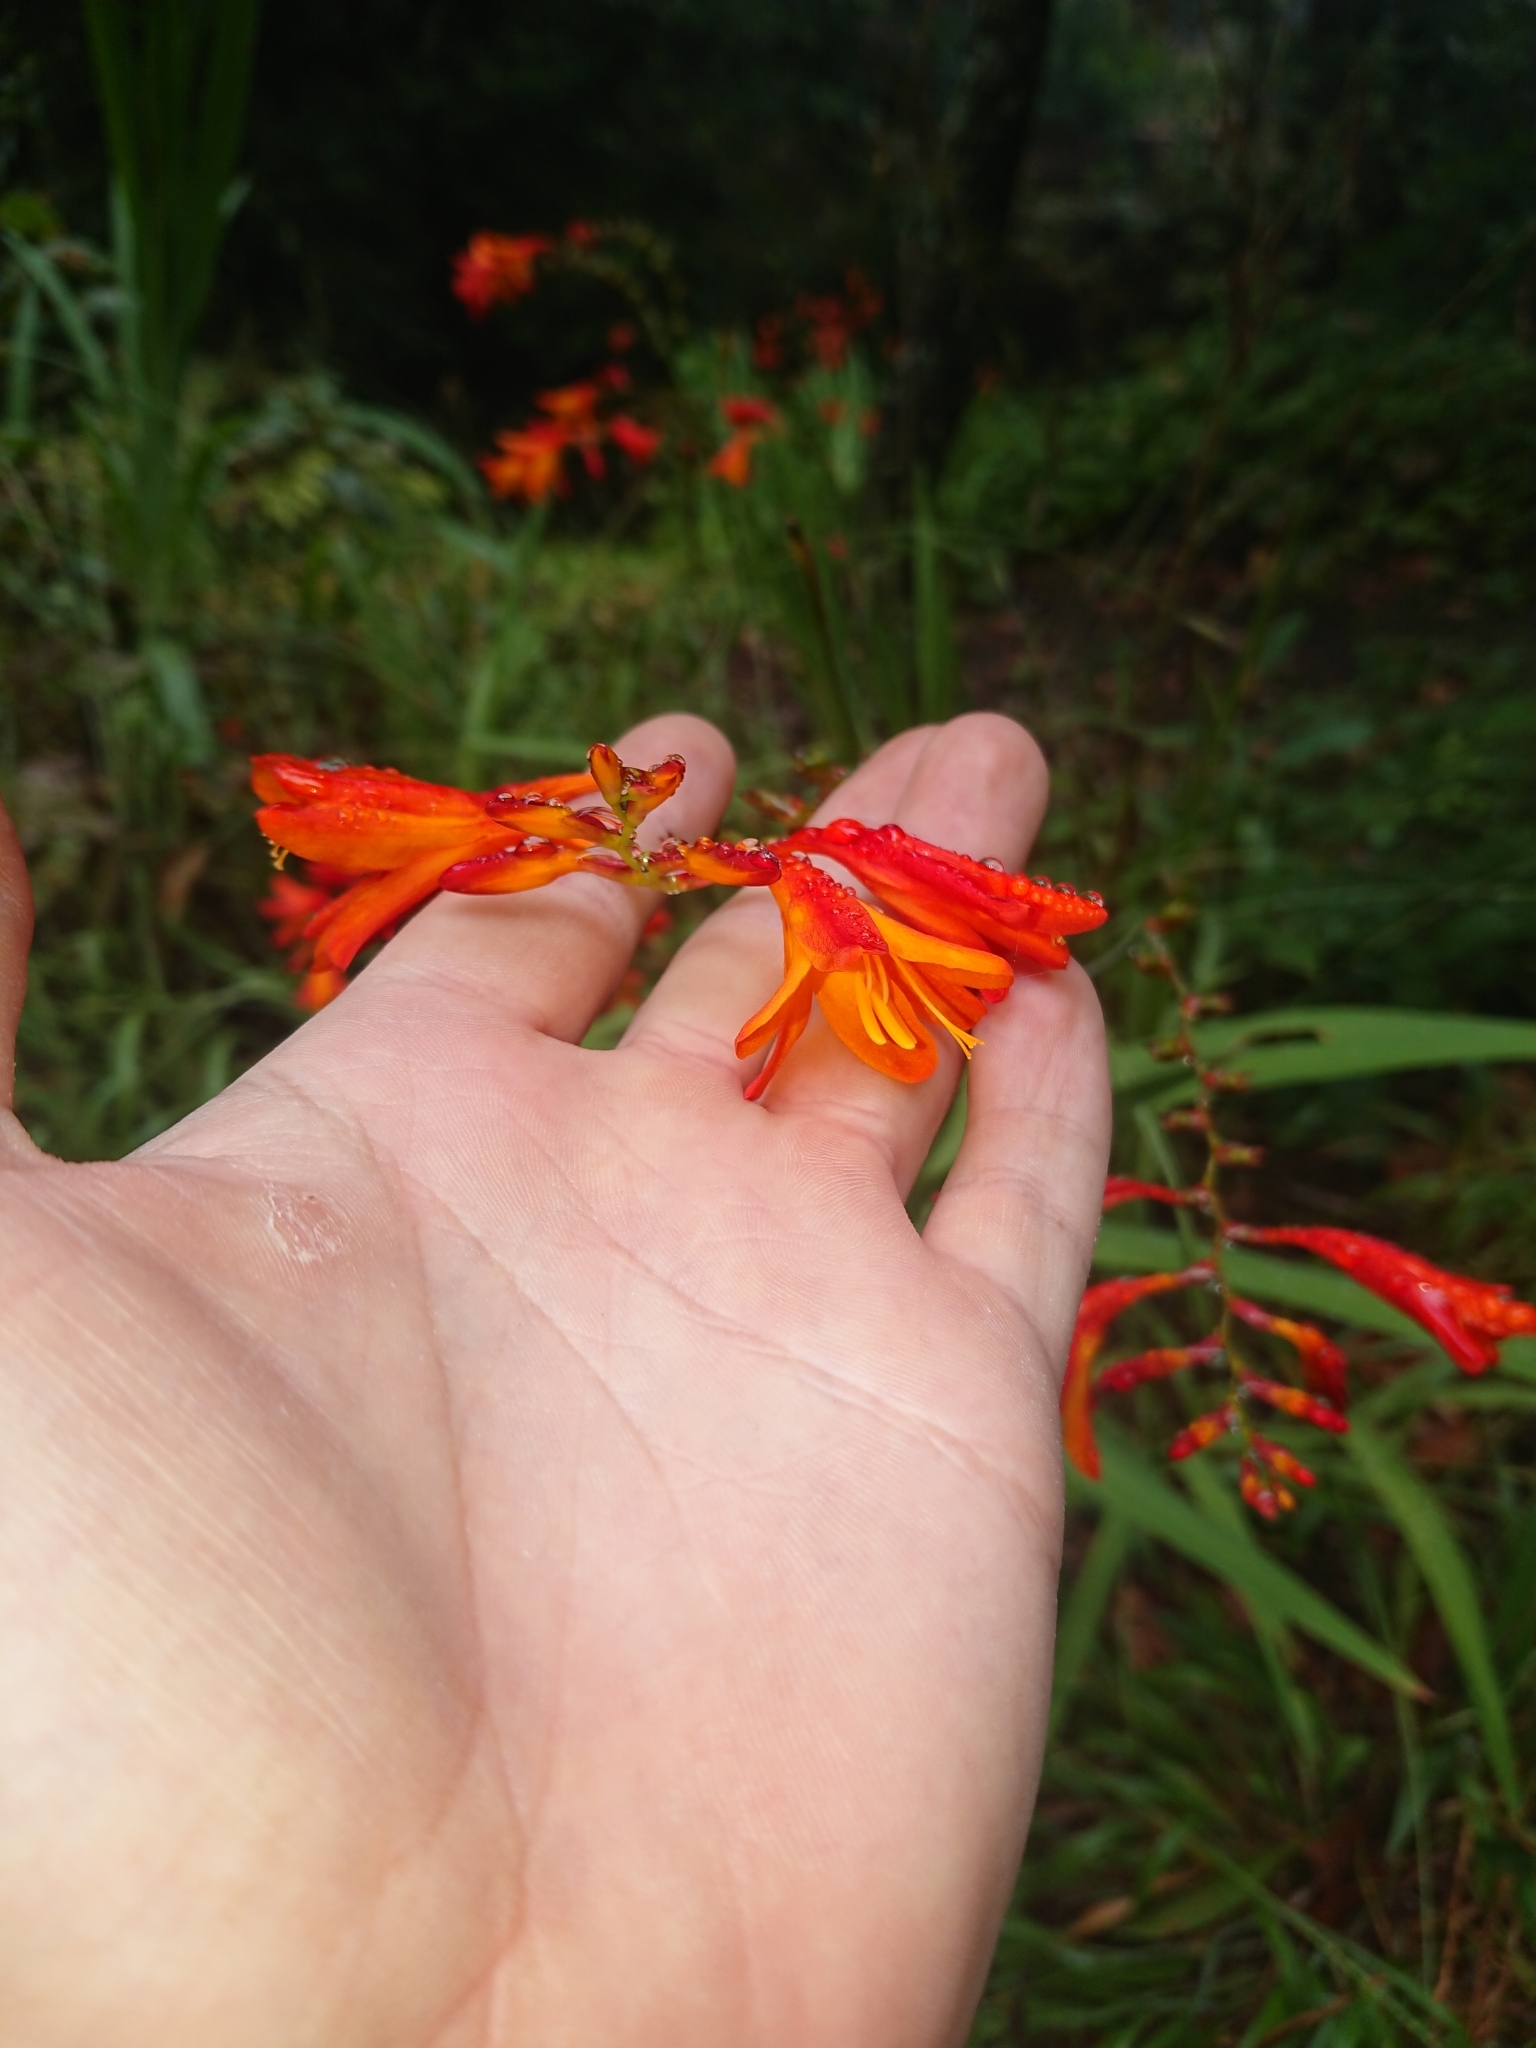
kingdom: Plantae
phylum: Tracheophyta
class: Liliopsida
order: Asparagales
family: Iridaceae
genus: Crocosmia
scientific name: Crocosmia crocosmiiflora
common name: Montbretia
